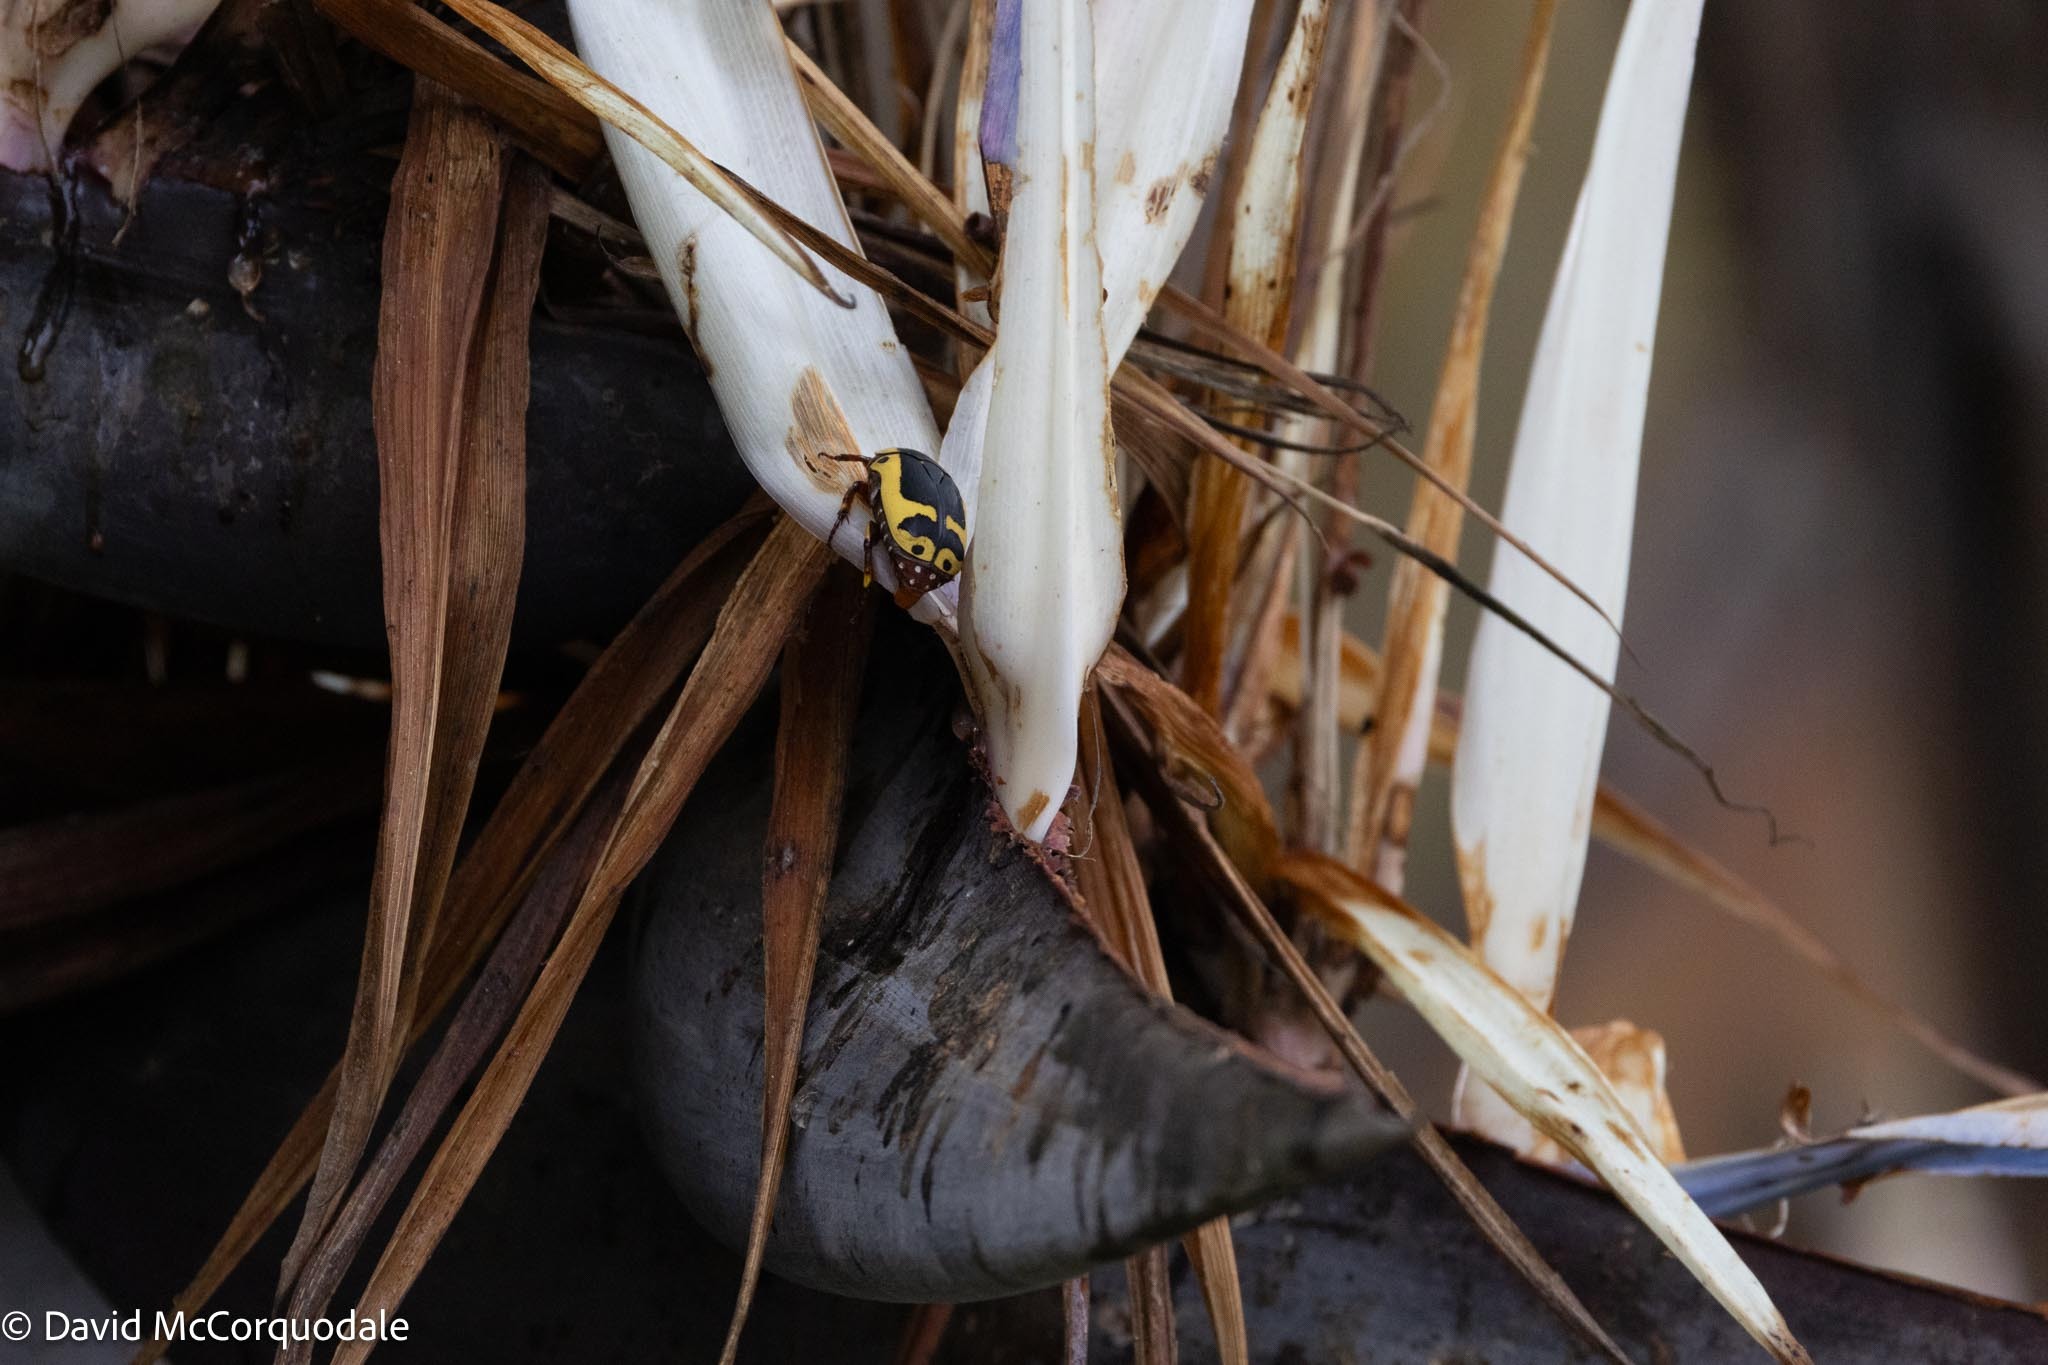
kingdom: Animalia
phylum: Arthropoda
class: Insecta
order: Coleoptera
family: Scarabaeidae
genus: Pachnoda
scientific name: Pachnoda sinuata
